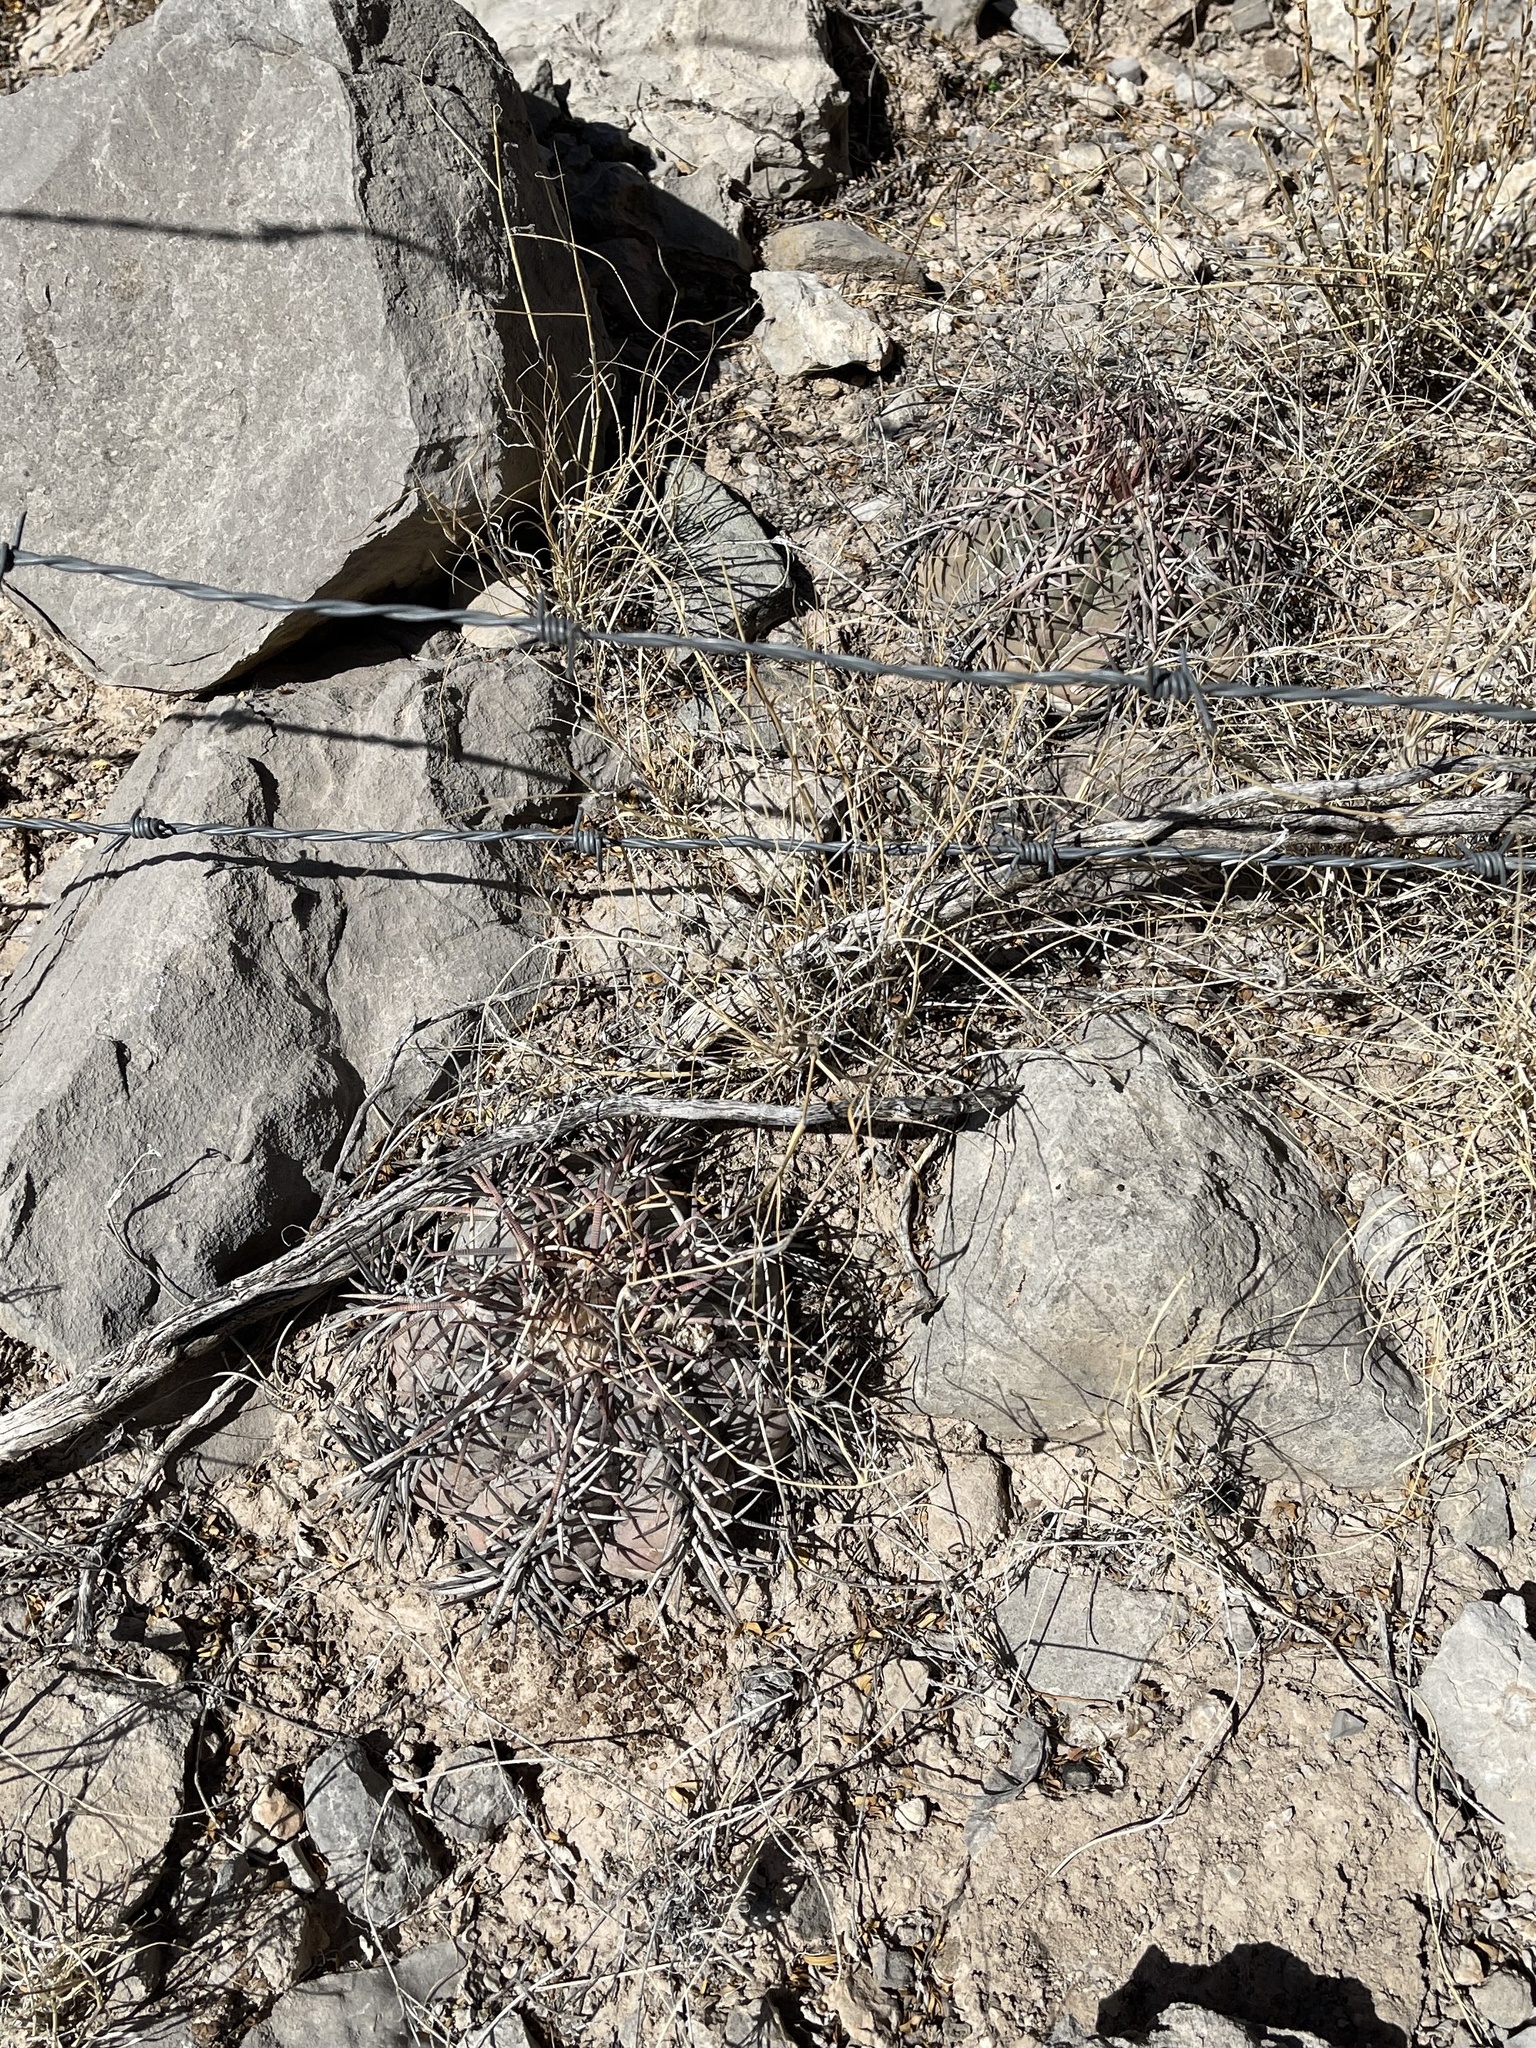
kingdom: Plantae
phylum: Tracheophyta
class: Magnoliopsida
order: Caryophyllales
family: Cactaceae
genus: Echinocactus
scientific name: Echinocactus horizonthalonius
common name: Devilshead
